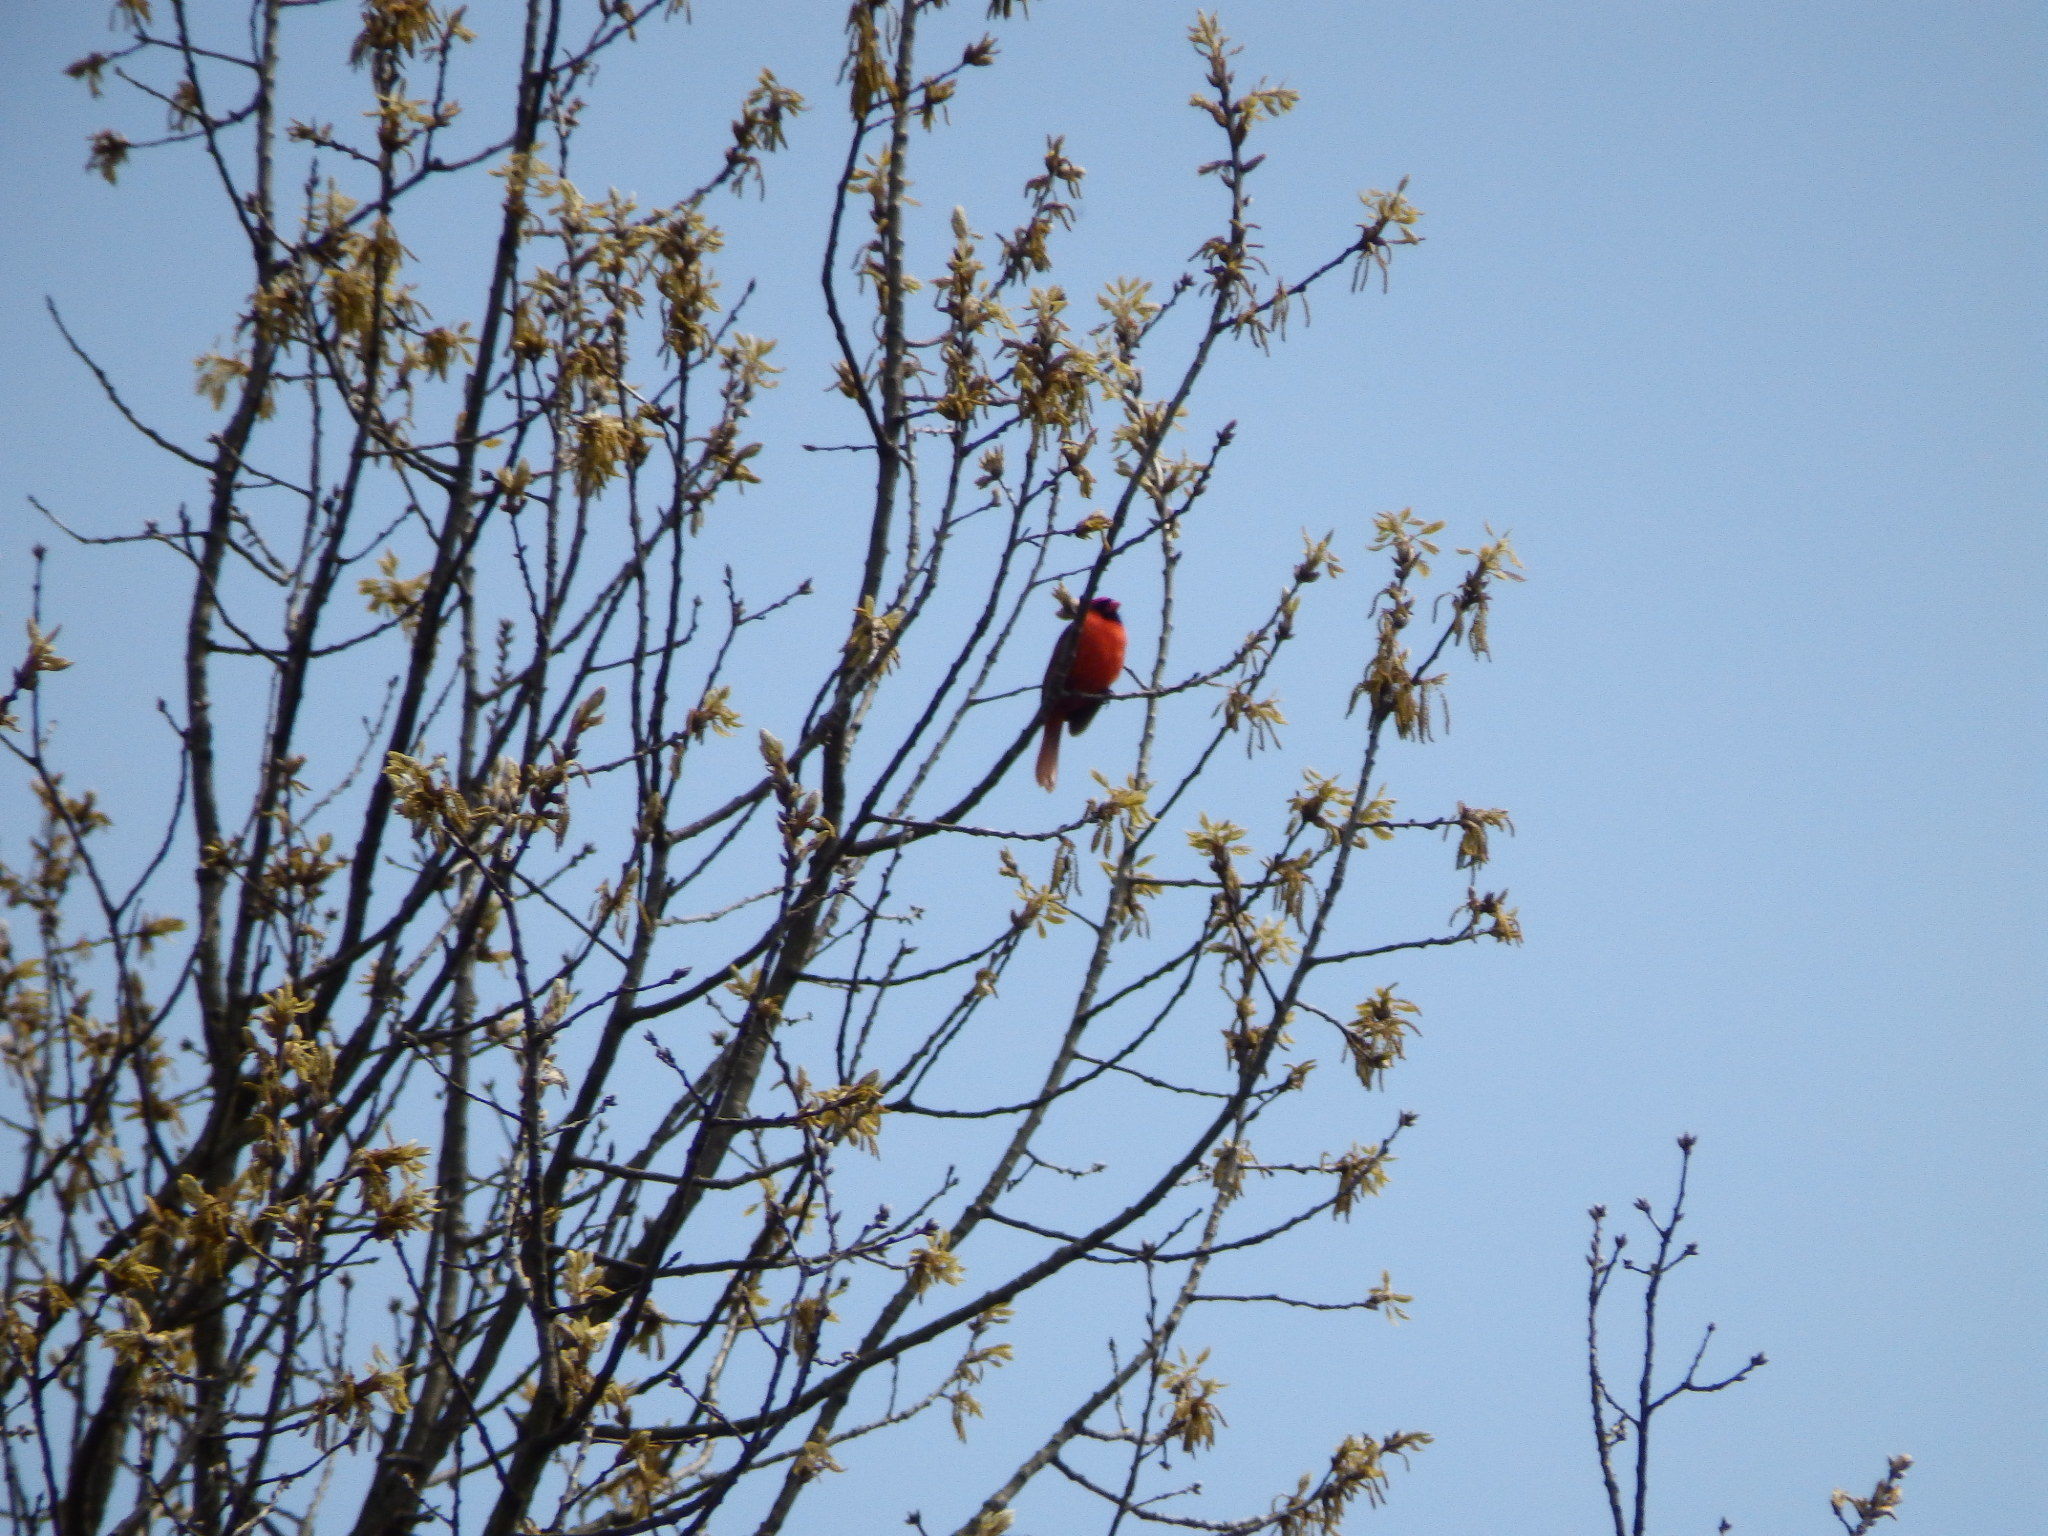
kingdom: Animalia
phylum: Chordata
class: Aves
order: Passeriformes
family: Cardinalidae
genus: Cardinalis
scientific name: Cardinalis cardinalis
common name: Northern cardinal
